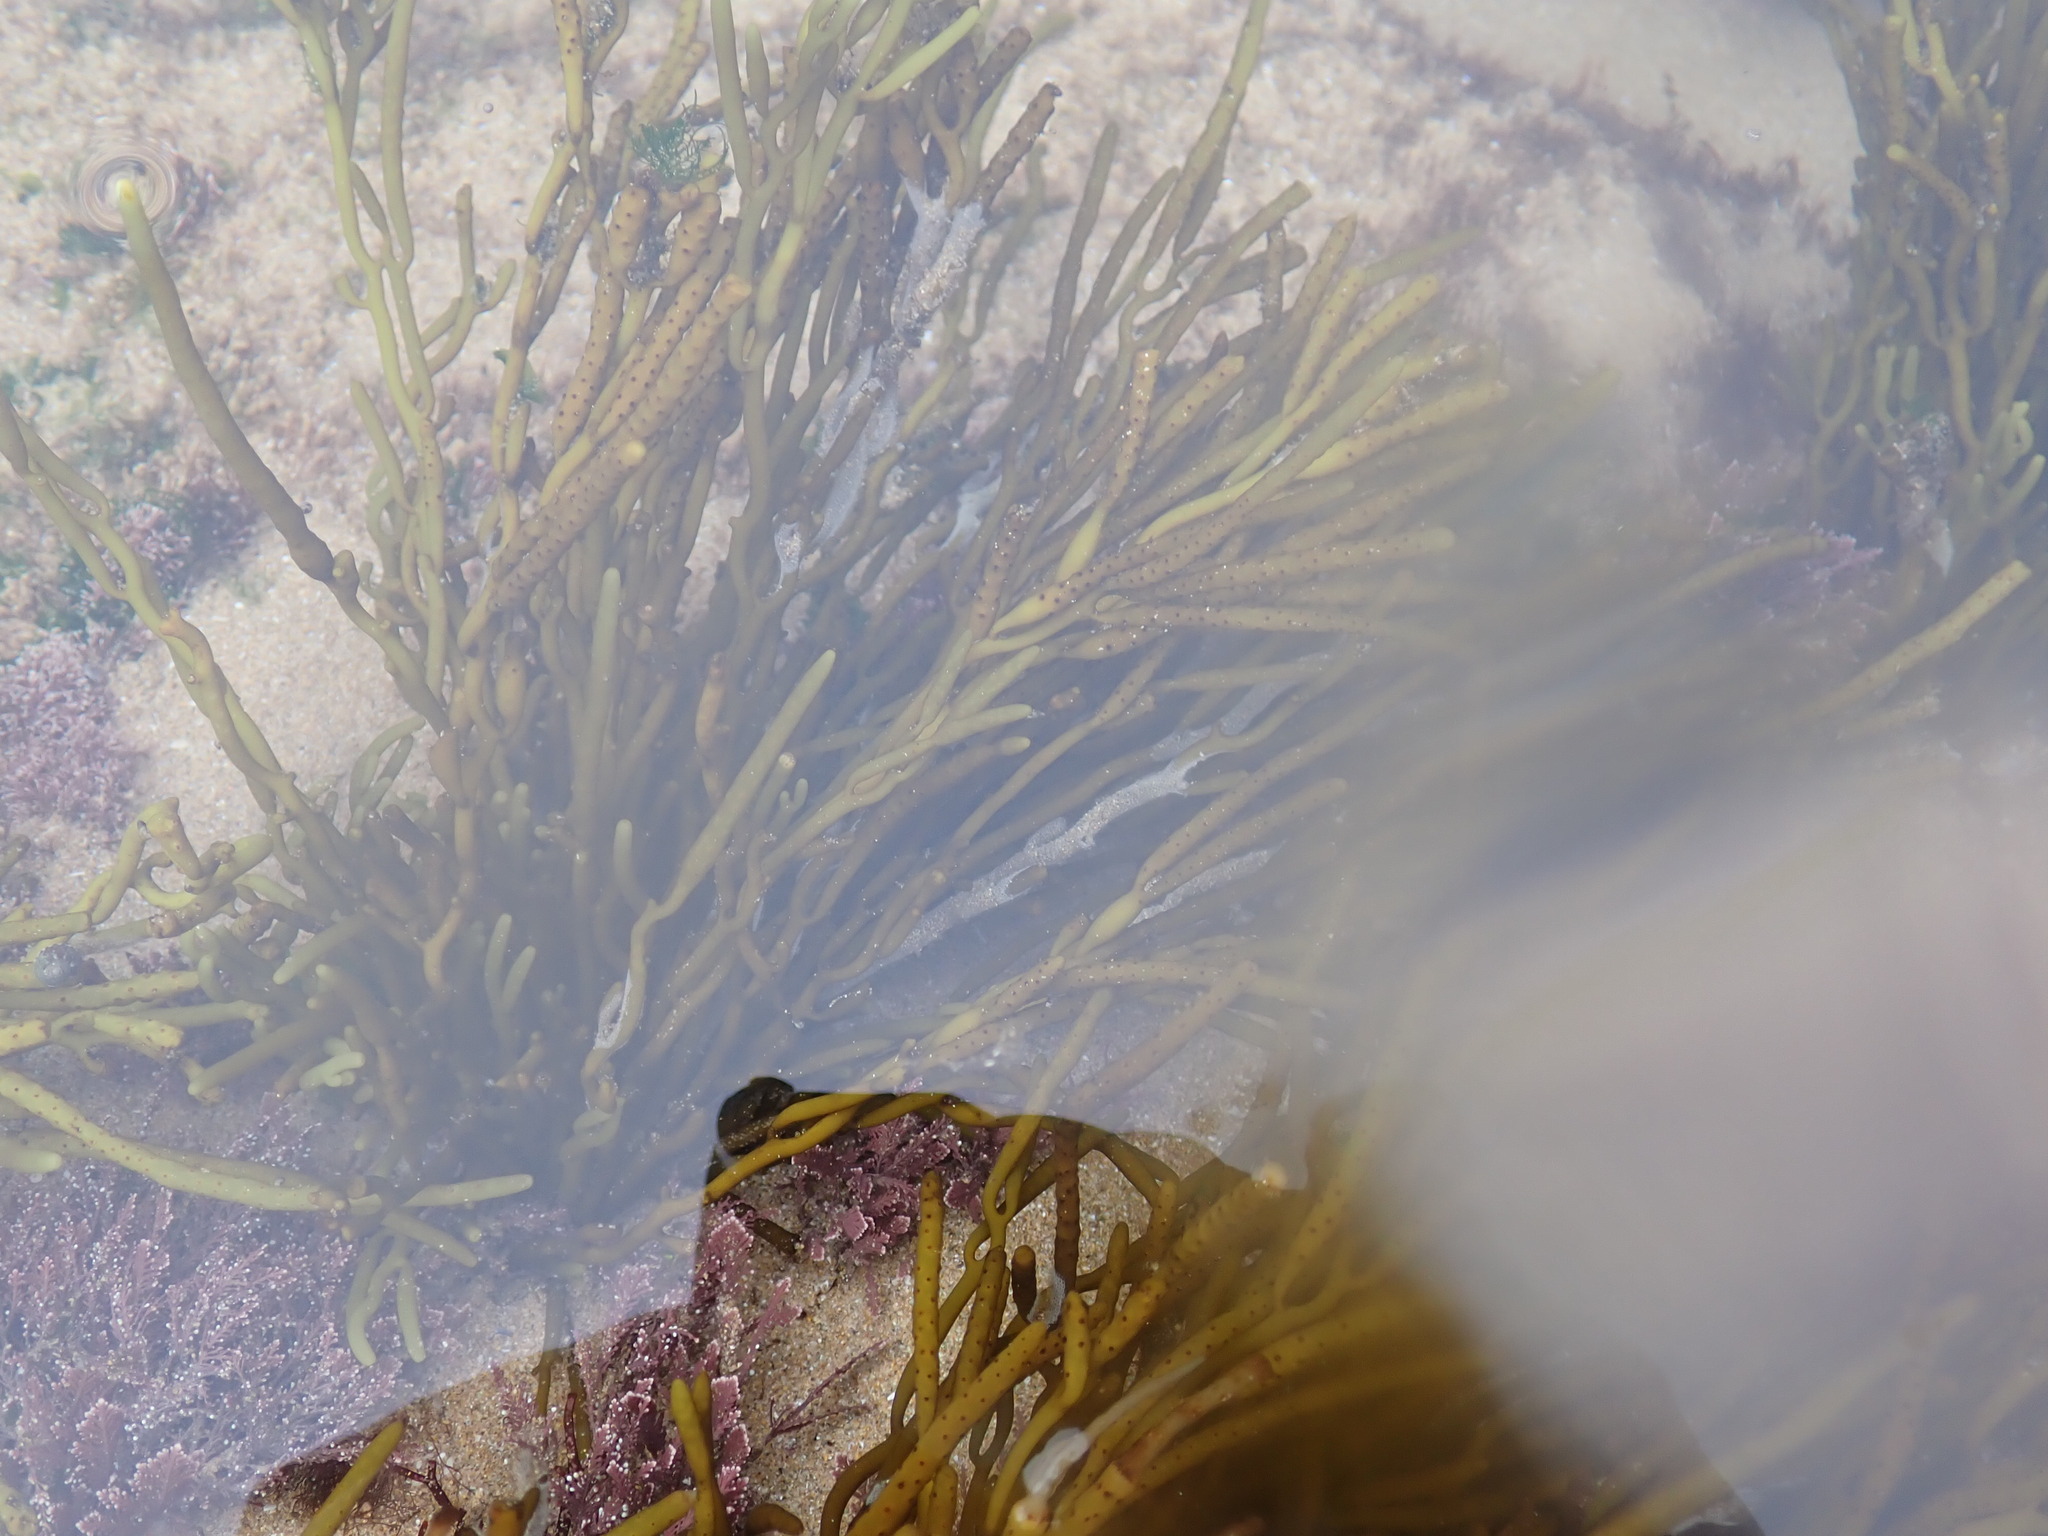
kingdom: Chromista
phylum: Ochrophyta
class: Phaeophyceae
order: Fucales
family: Sargassaceae
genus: Bifurcaria
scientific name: Bifurcaria bifurcata
